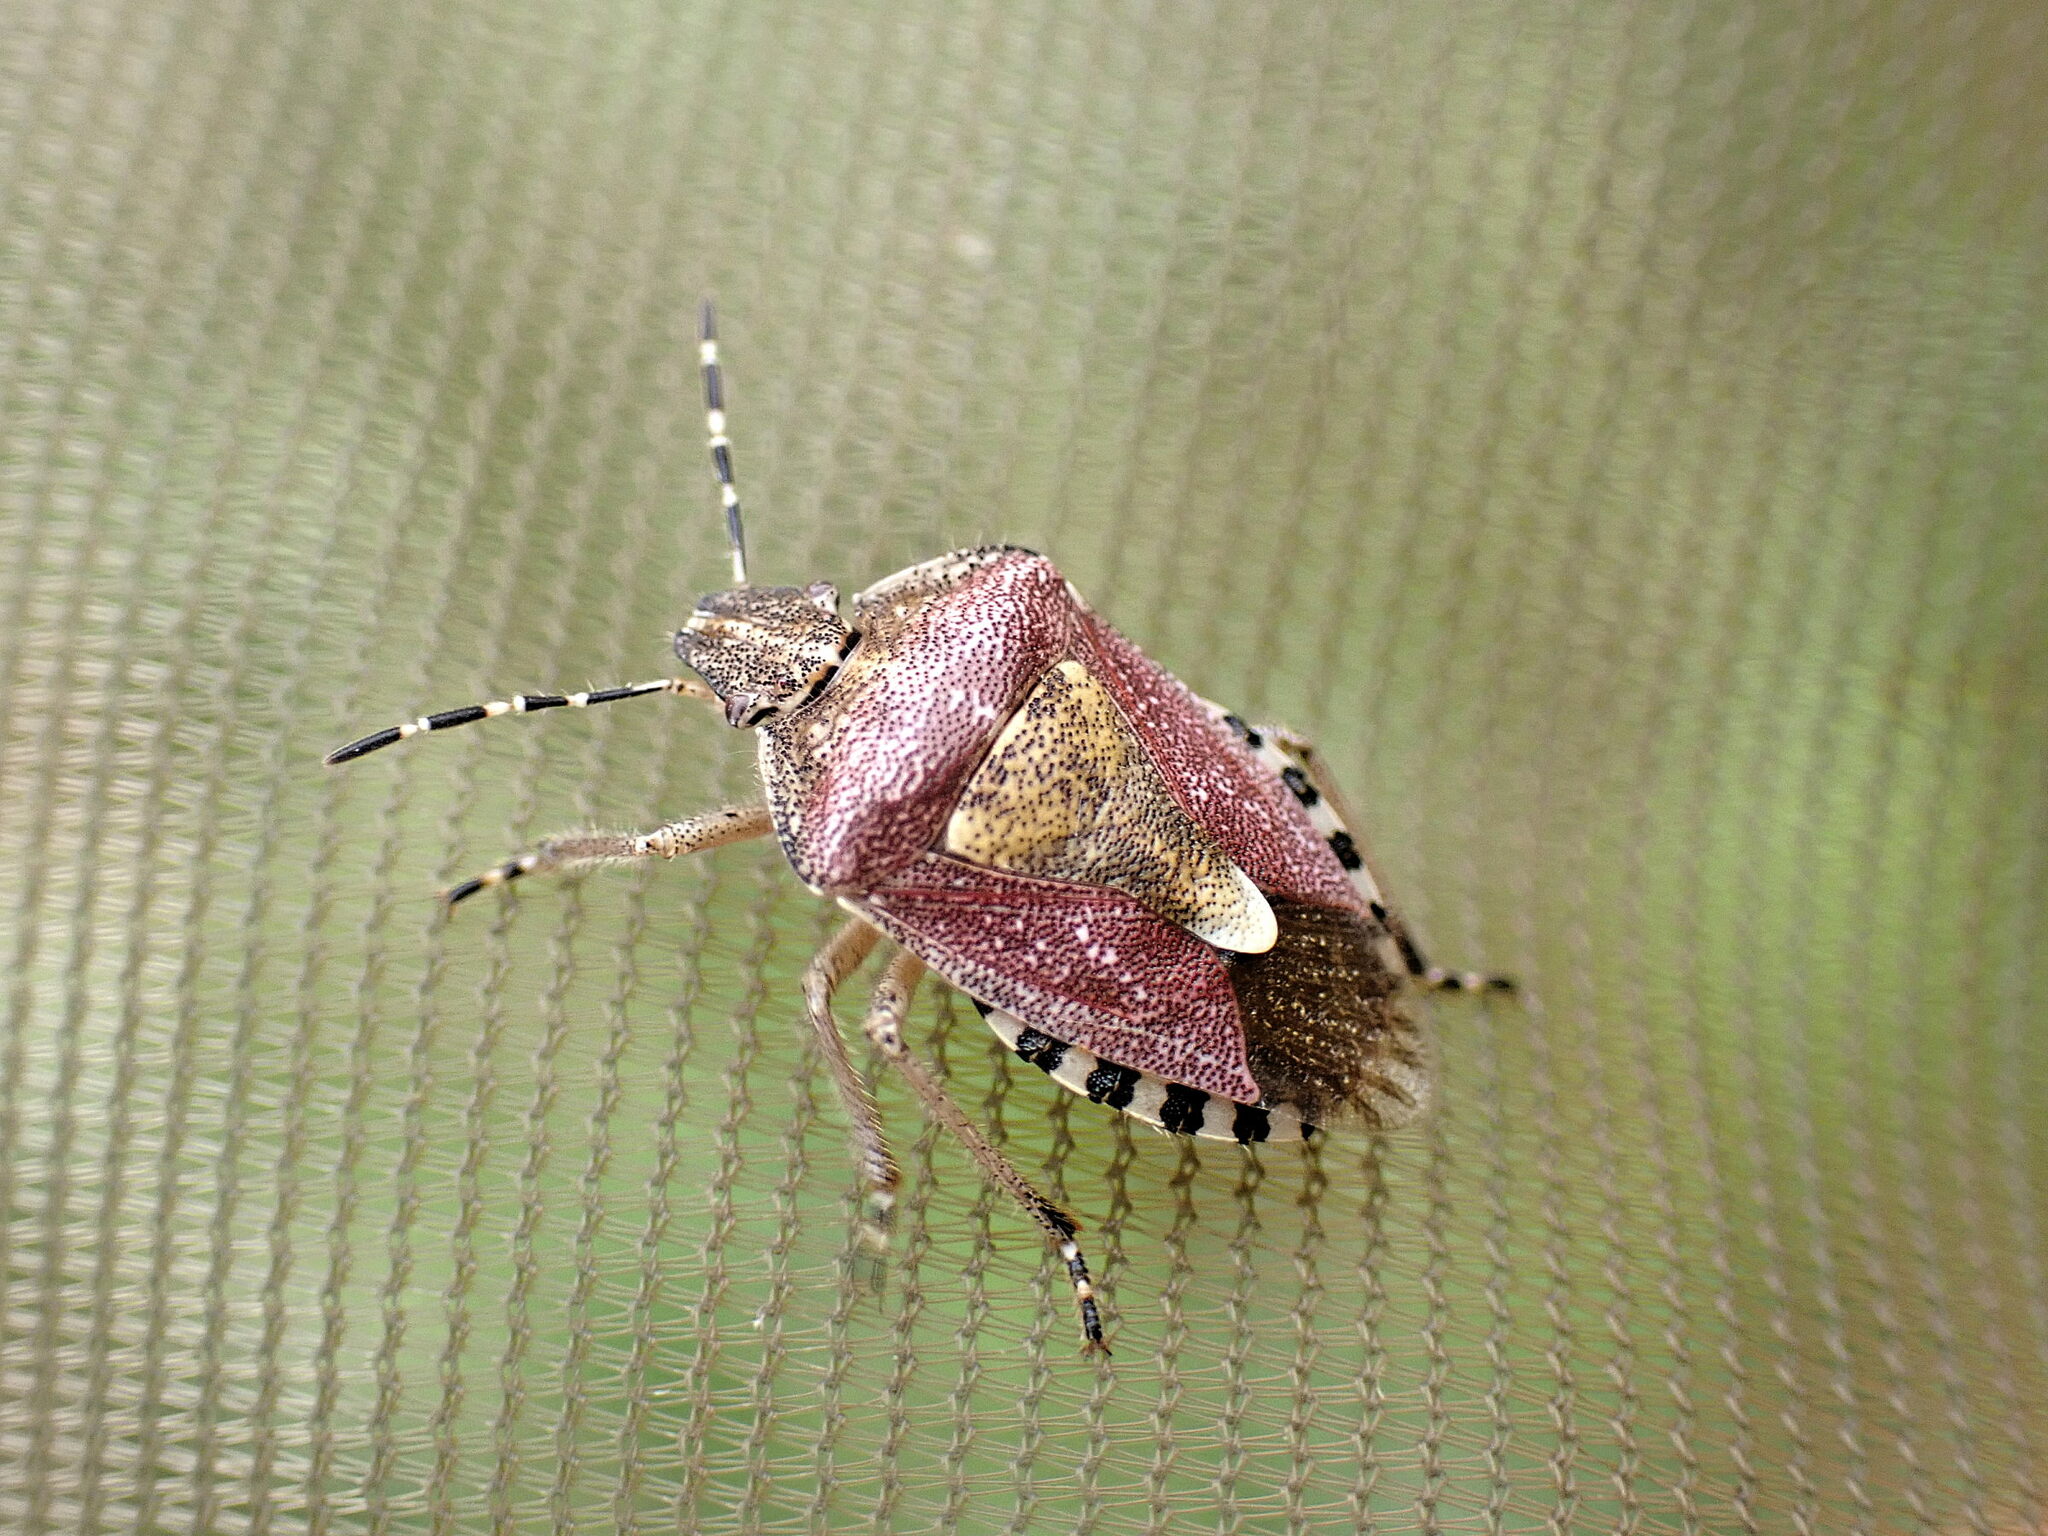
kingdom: Animalia
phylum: Arthropoda
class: Insecta
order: Hemiptera
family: Pentatomidae
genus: Dolycoris
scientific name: Dolycoris baccarum
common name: Sloe bug
